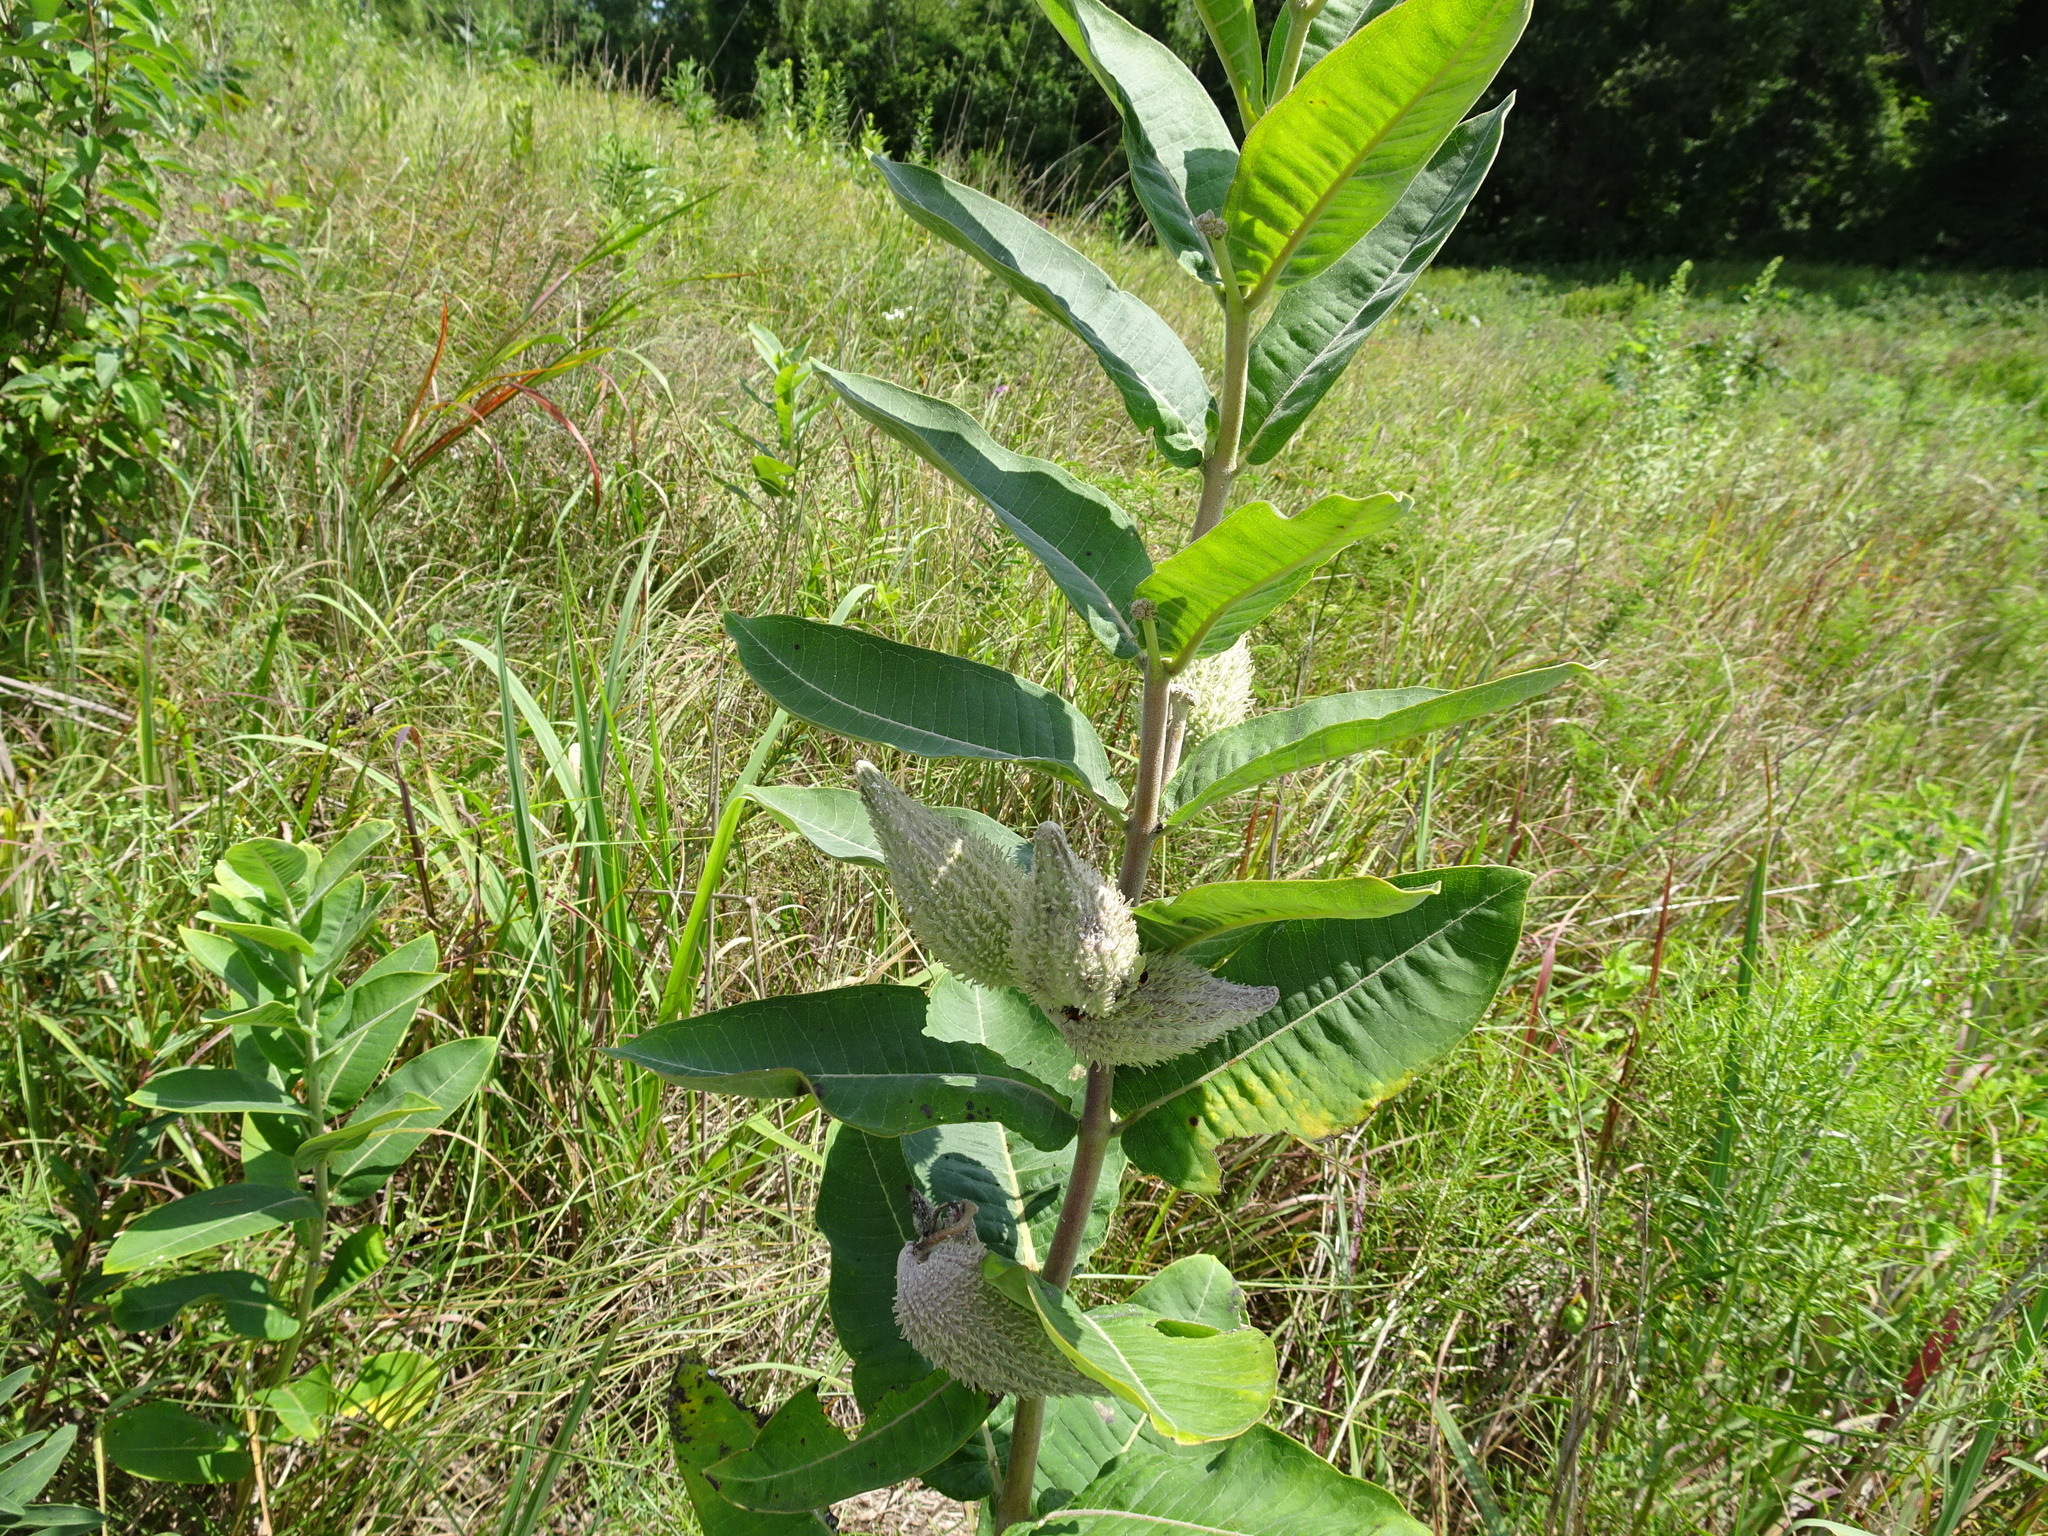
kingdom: Plantae
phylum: Tracheophyta
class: Magnoliopsida
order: Gentianales
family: Apocynaceae
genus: Asclepias
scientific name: Asclepias syriaca
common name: Common milkweed
